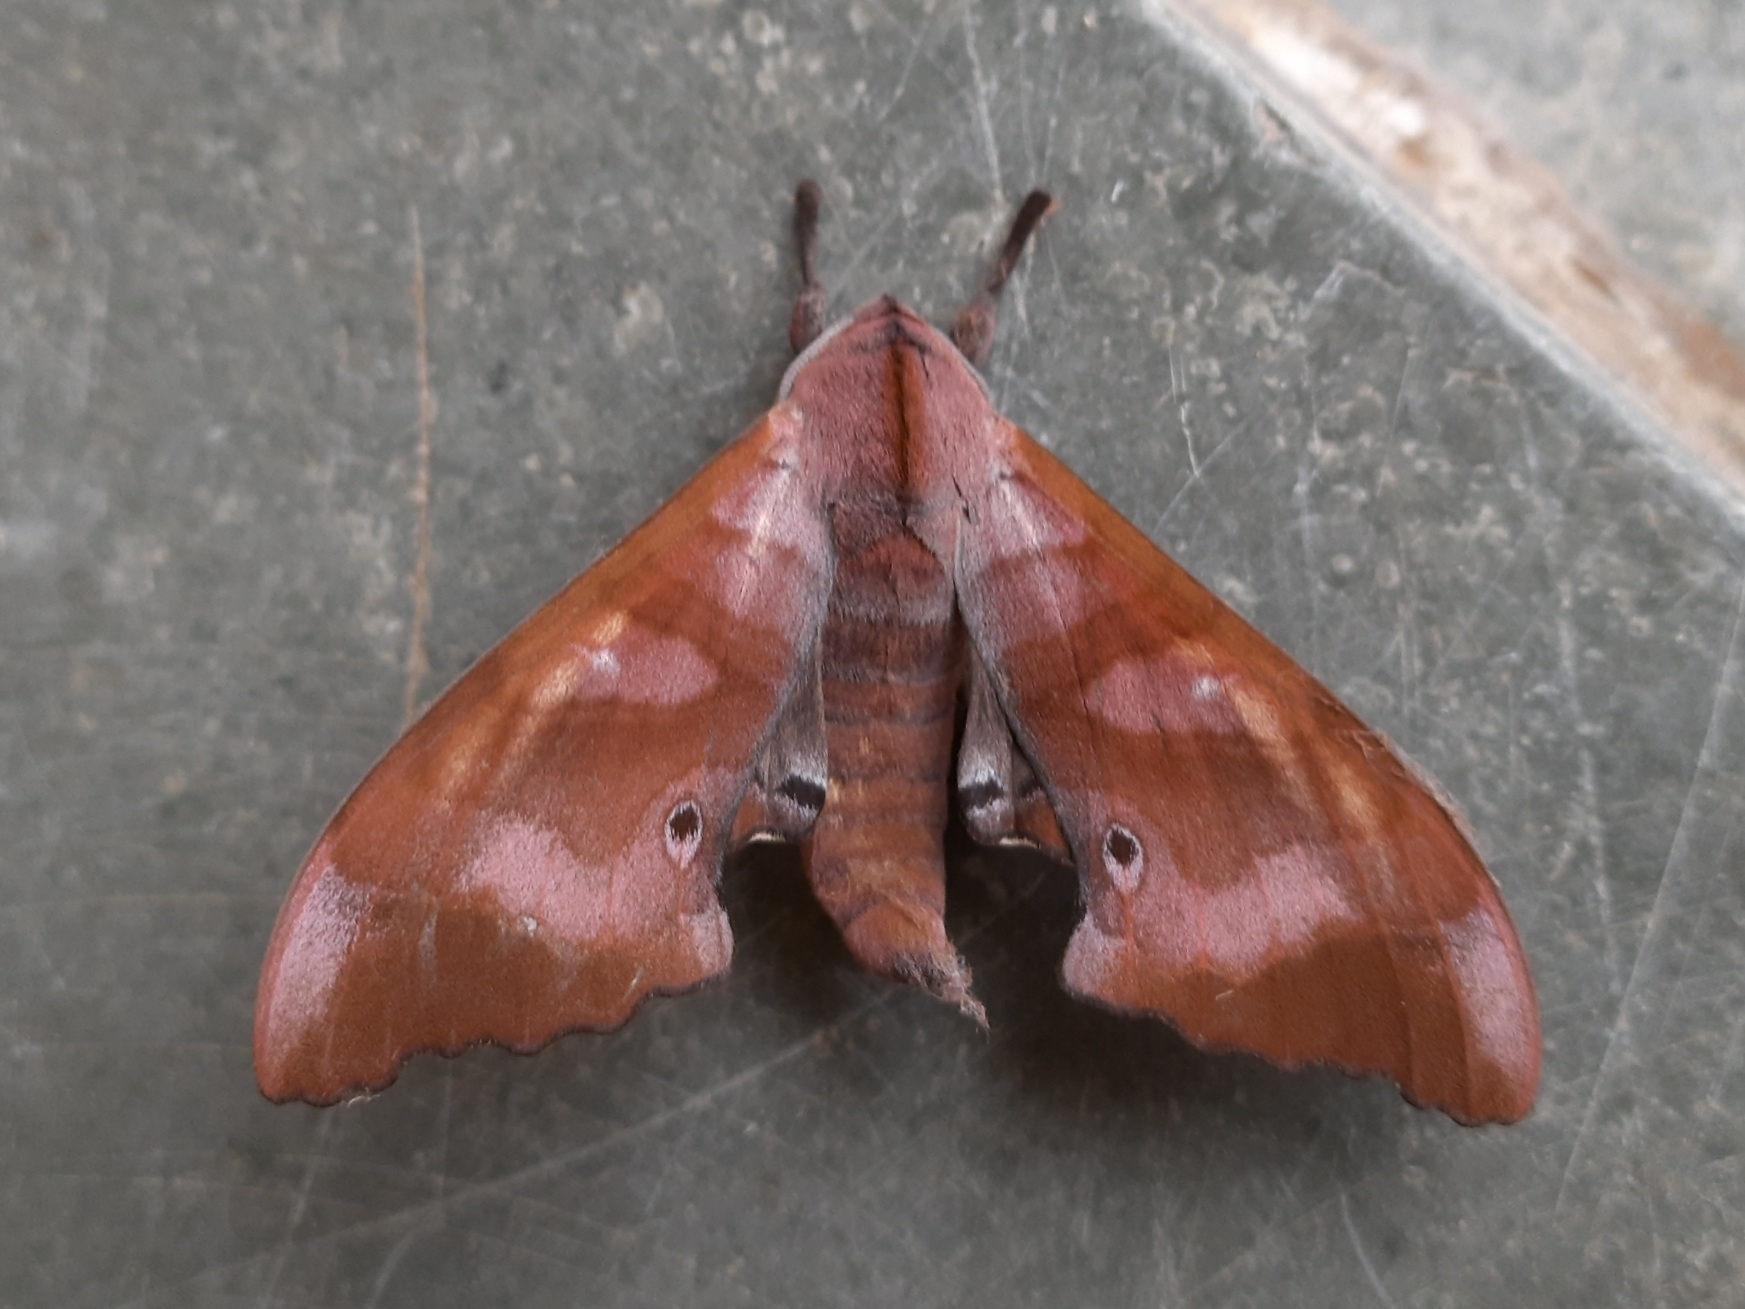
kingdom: Animalia
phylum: Arthropoda
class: Insecta
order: Lepidoptera
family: Sphingidae
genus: Marumba
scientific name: Marumba nympha
